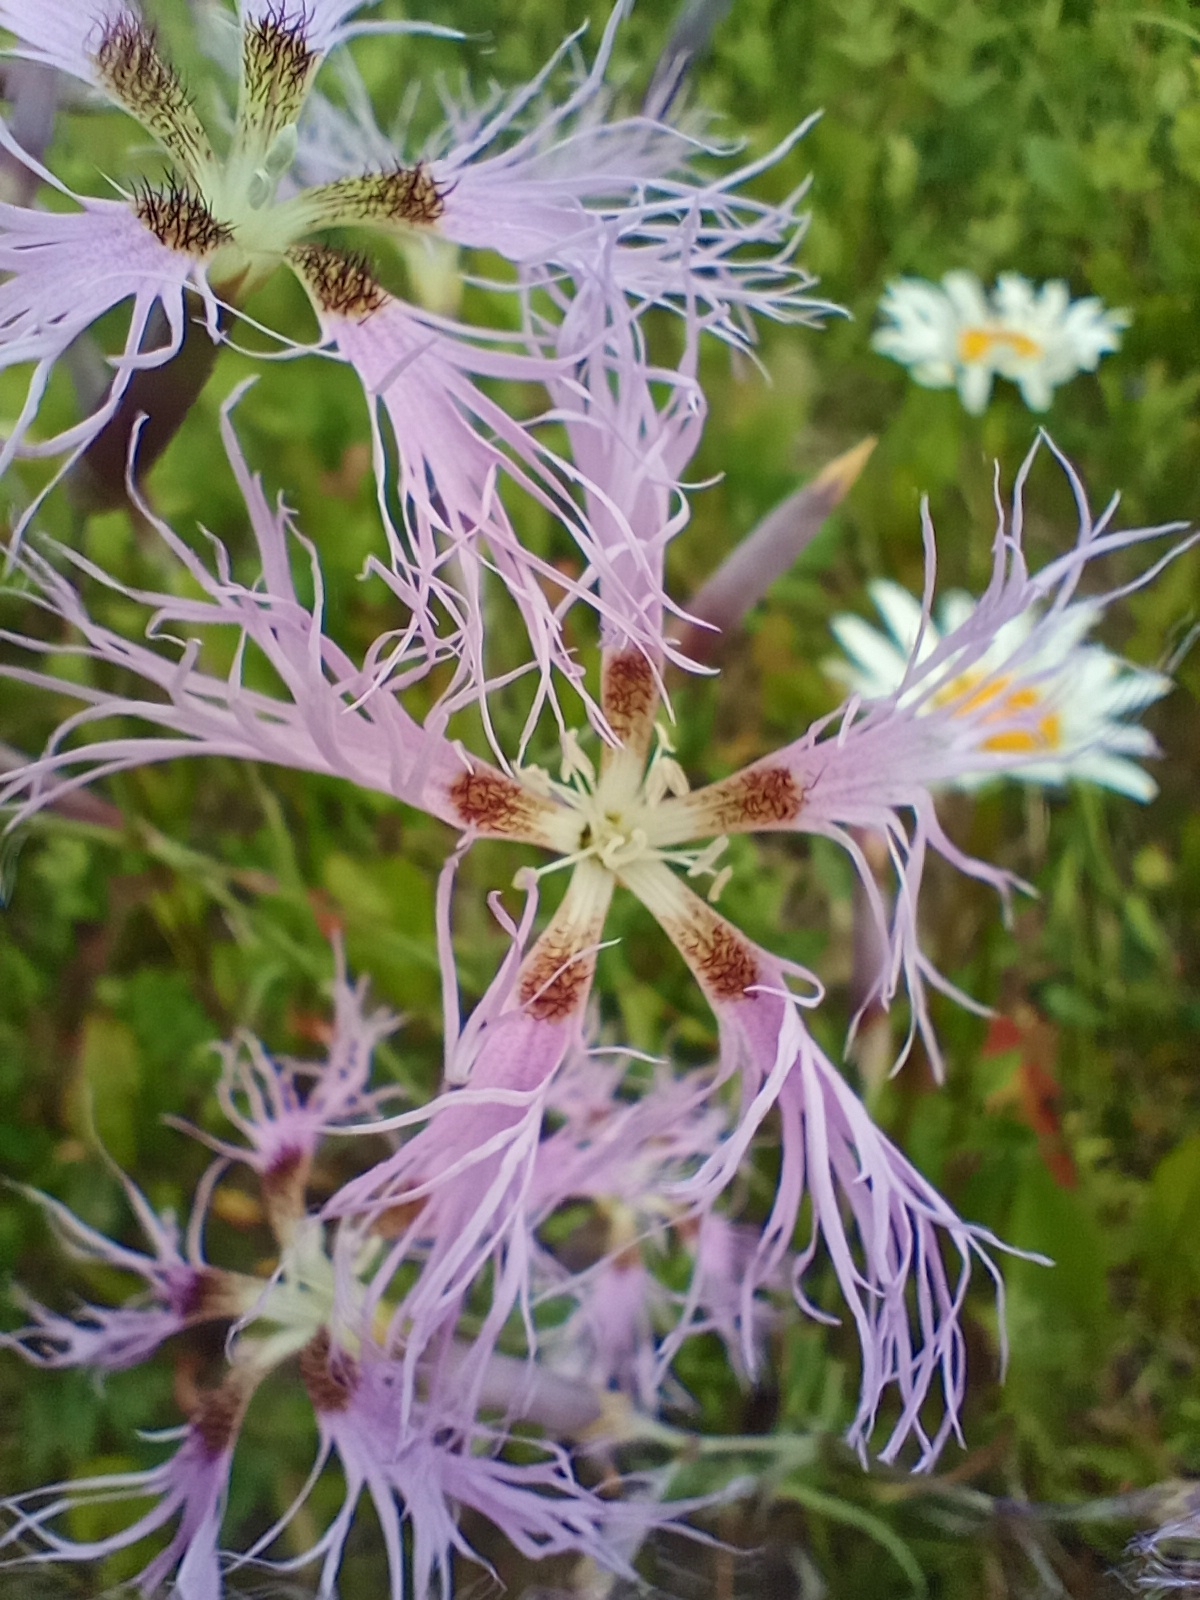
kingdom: Plantae
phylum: Tracheophyta
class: Magnoliopsida
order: Caryophyllales
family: Caryophyllaceae
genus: Dianthus
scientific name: Dianthus superbus
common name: Fringed pink
